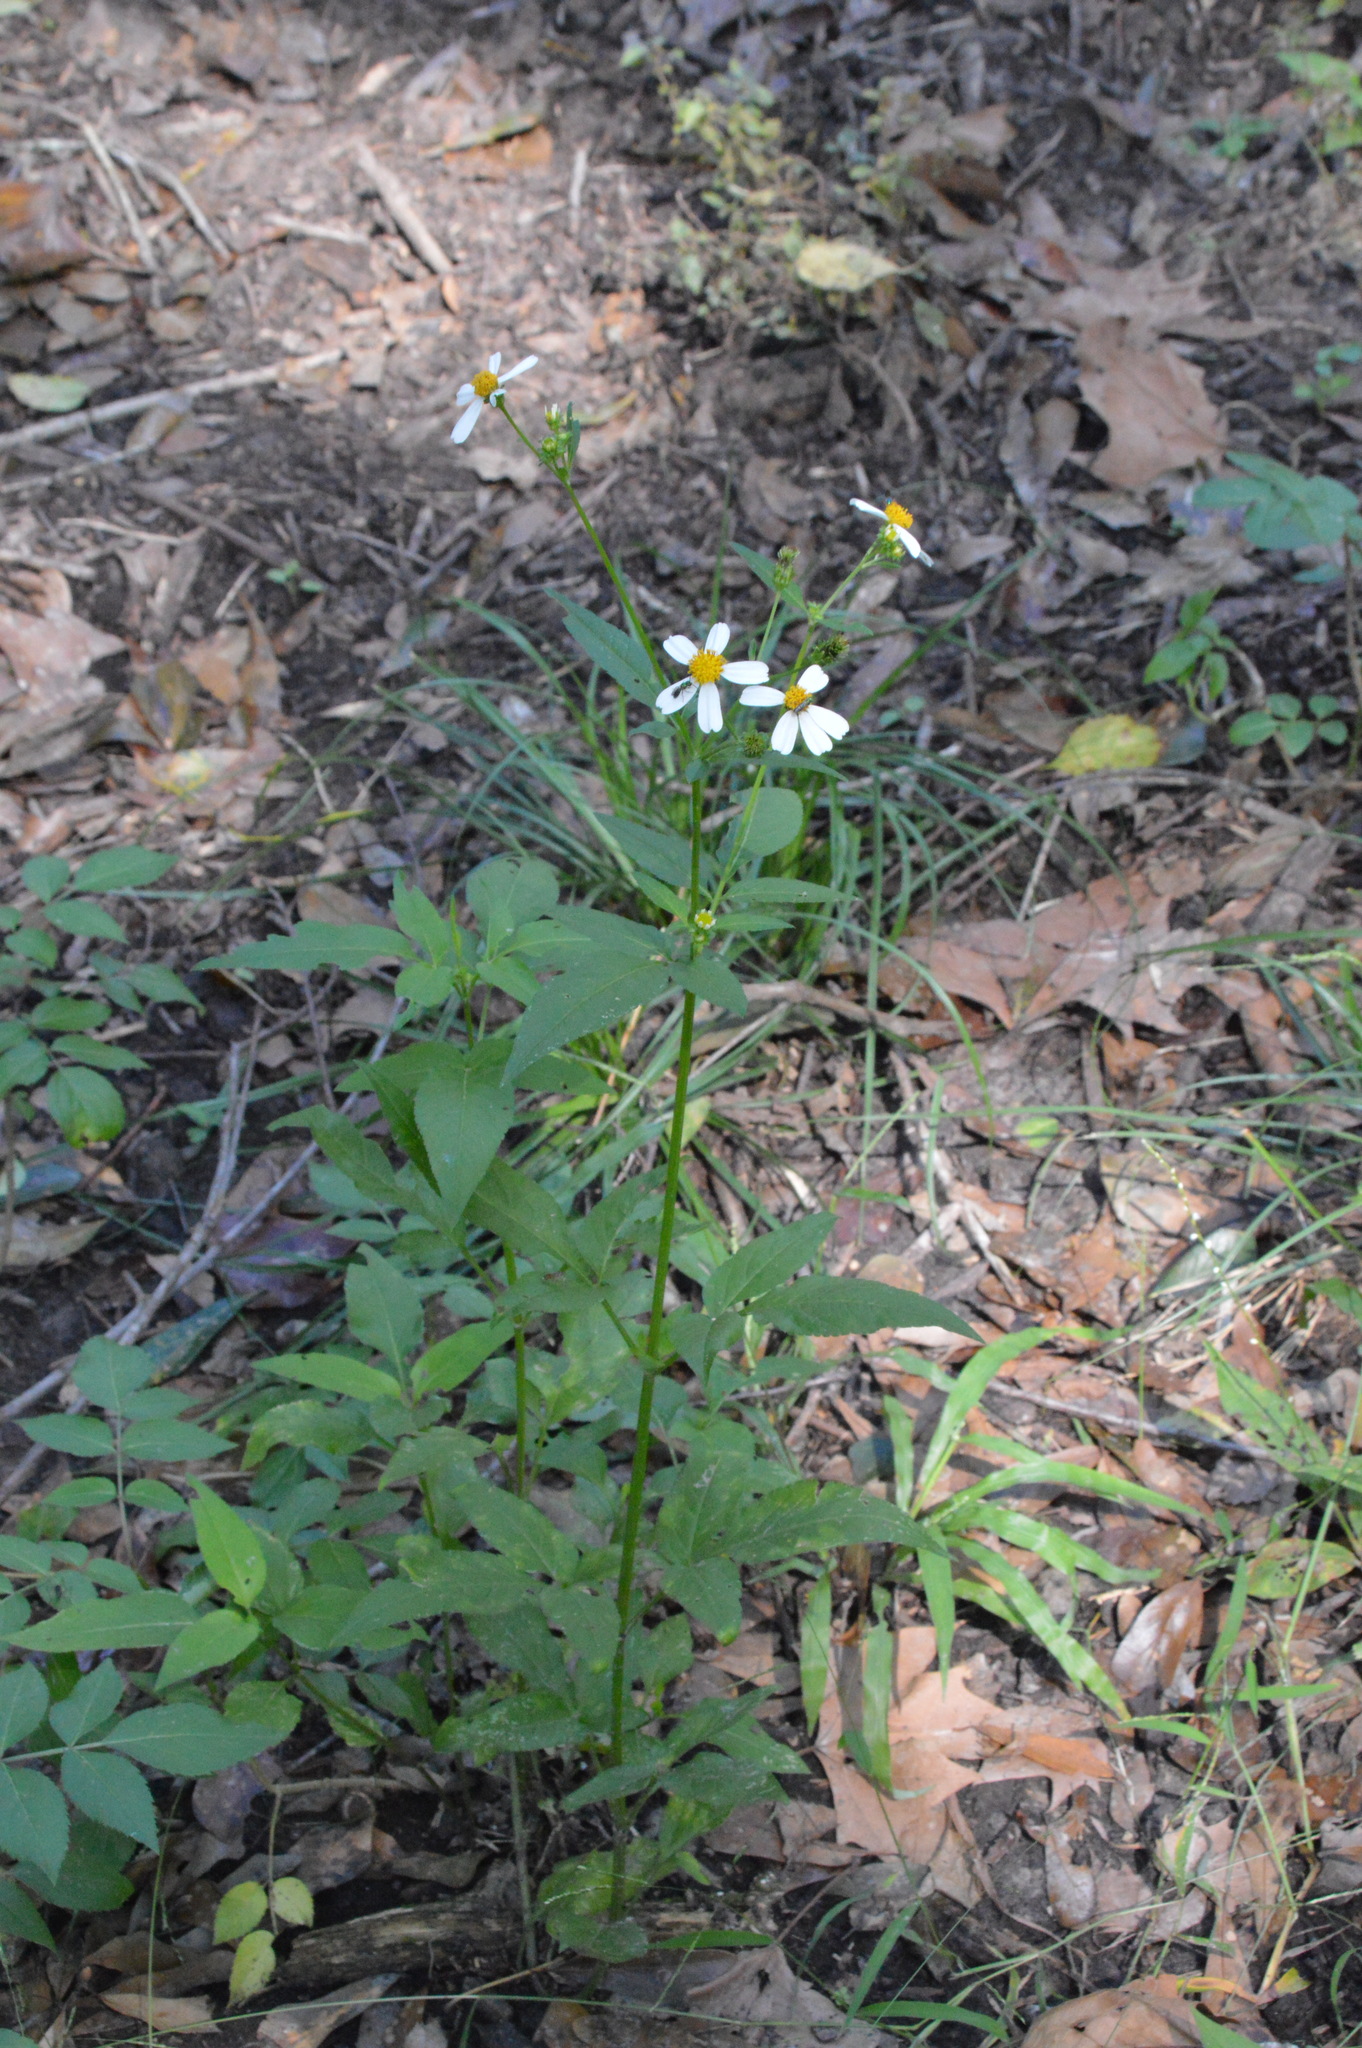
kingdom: Plantae
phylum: Tracheophyta
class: Magnoliopsida
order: Asterales
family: Asteraceae
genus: Bidens
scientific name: Bidens alba
